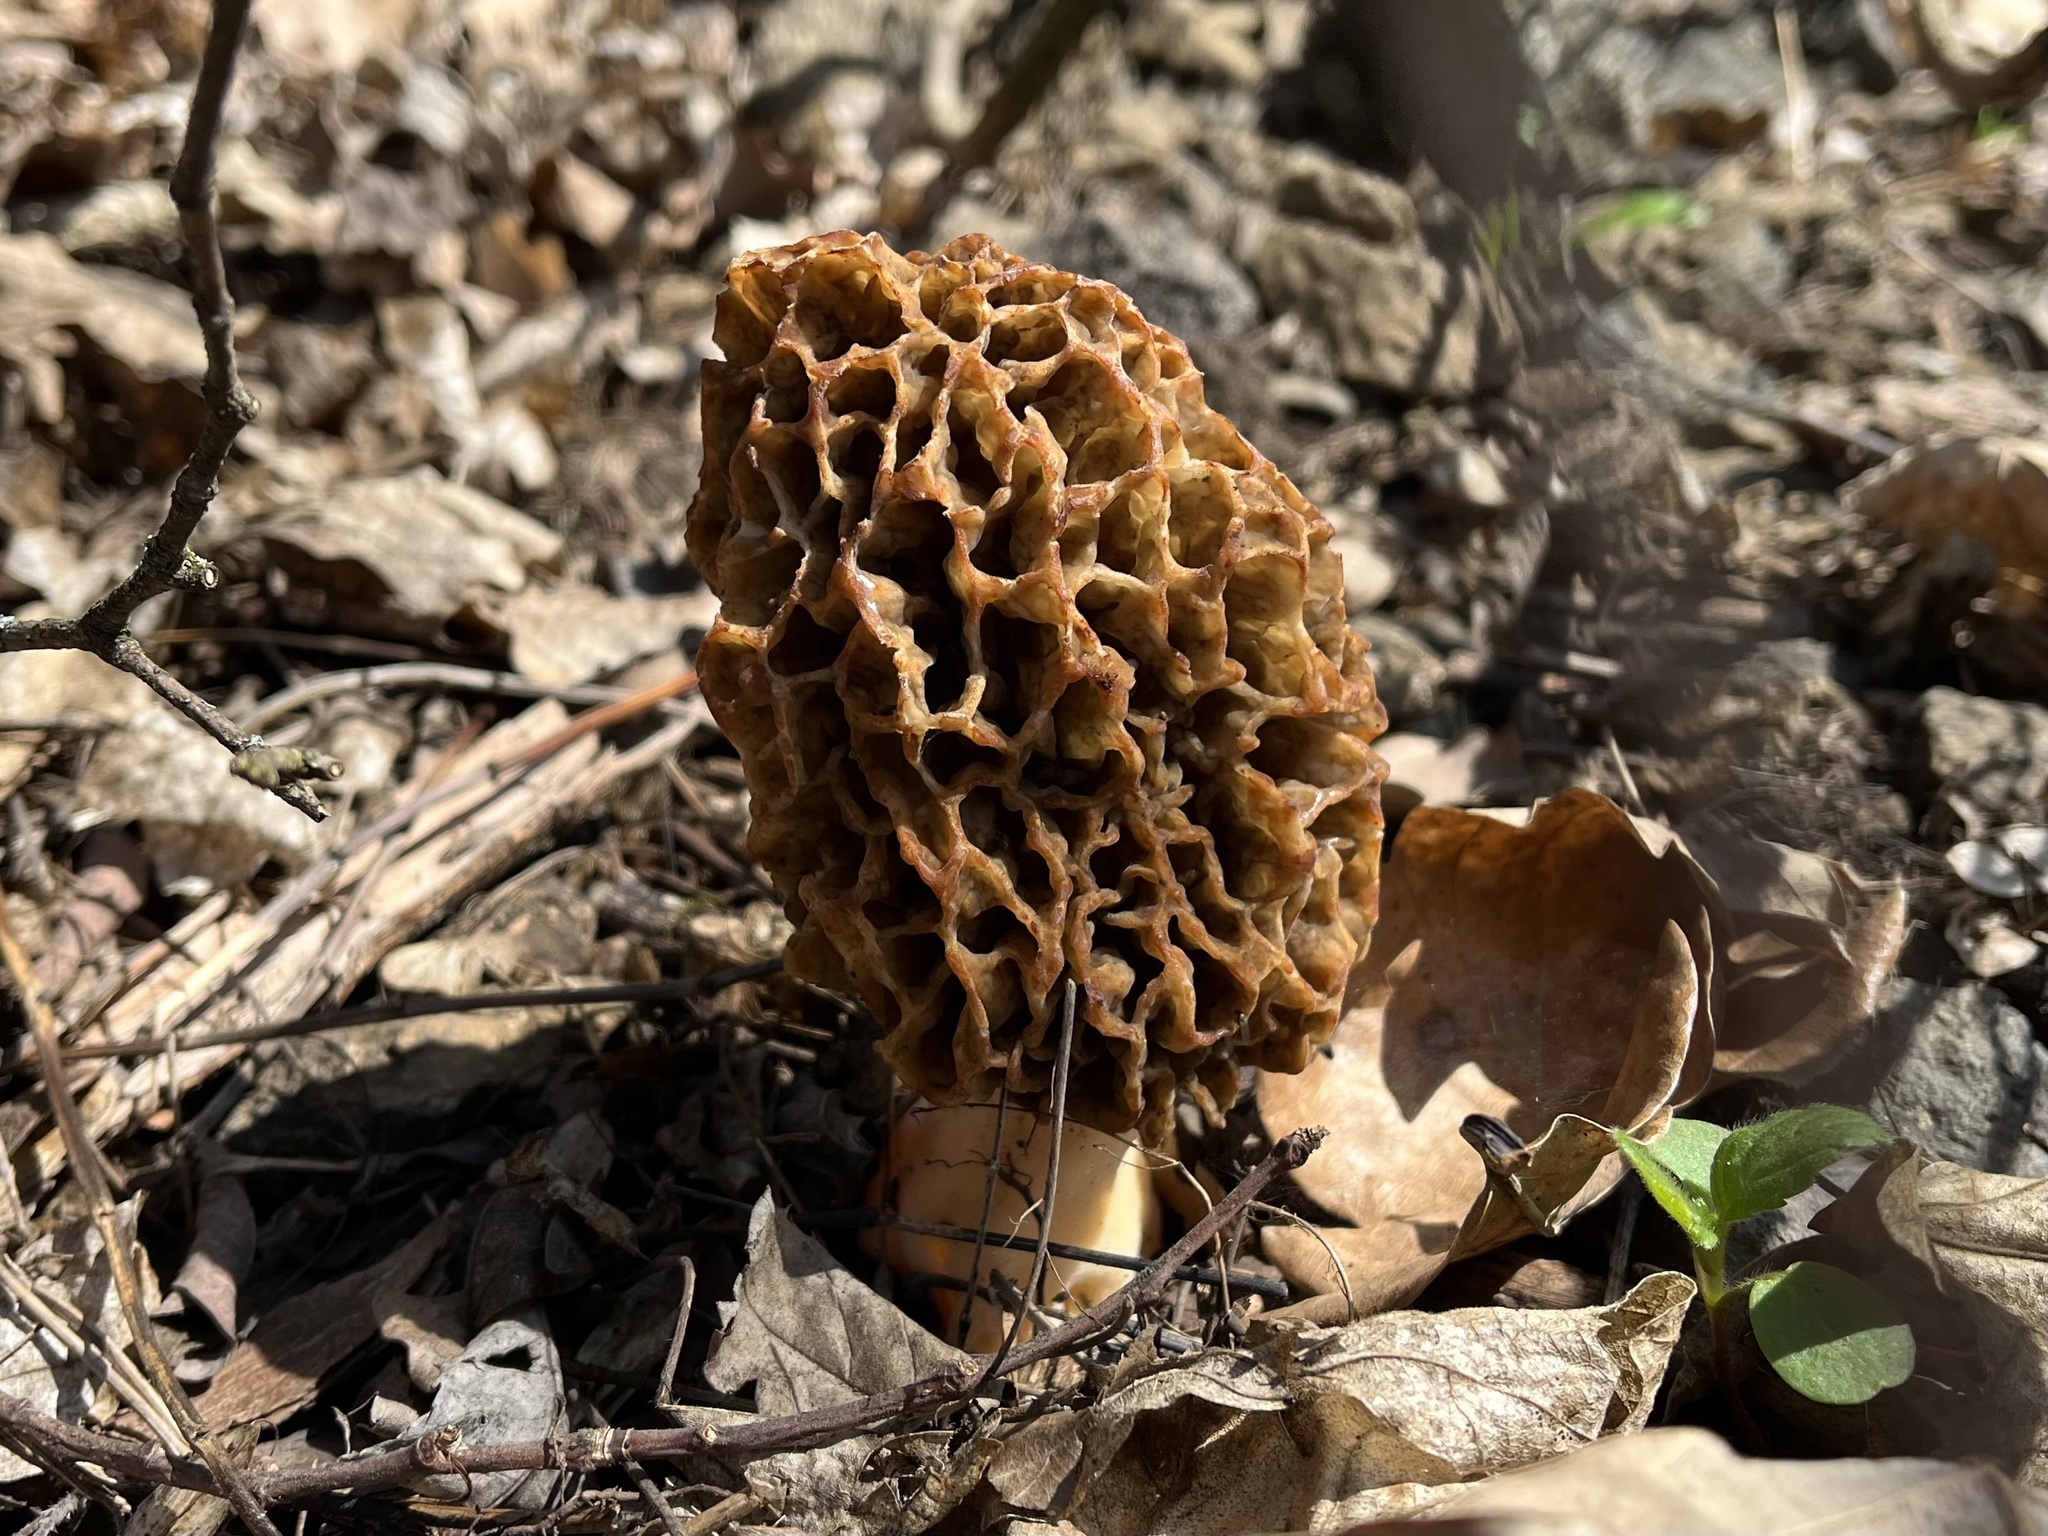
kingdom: Fungi
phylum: Ascomycota
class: Pezizomycetes
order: Pezizales
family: Morchellaceae
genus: Morchella
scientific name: Morchella
